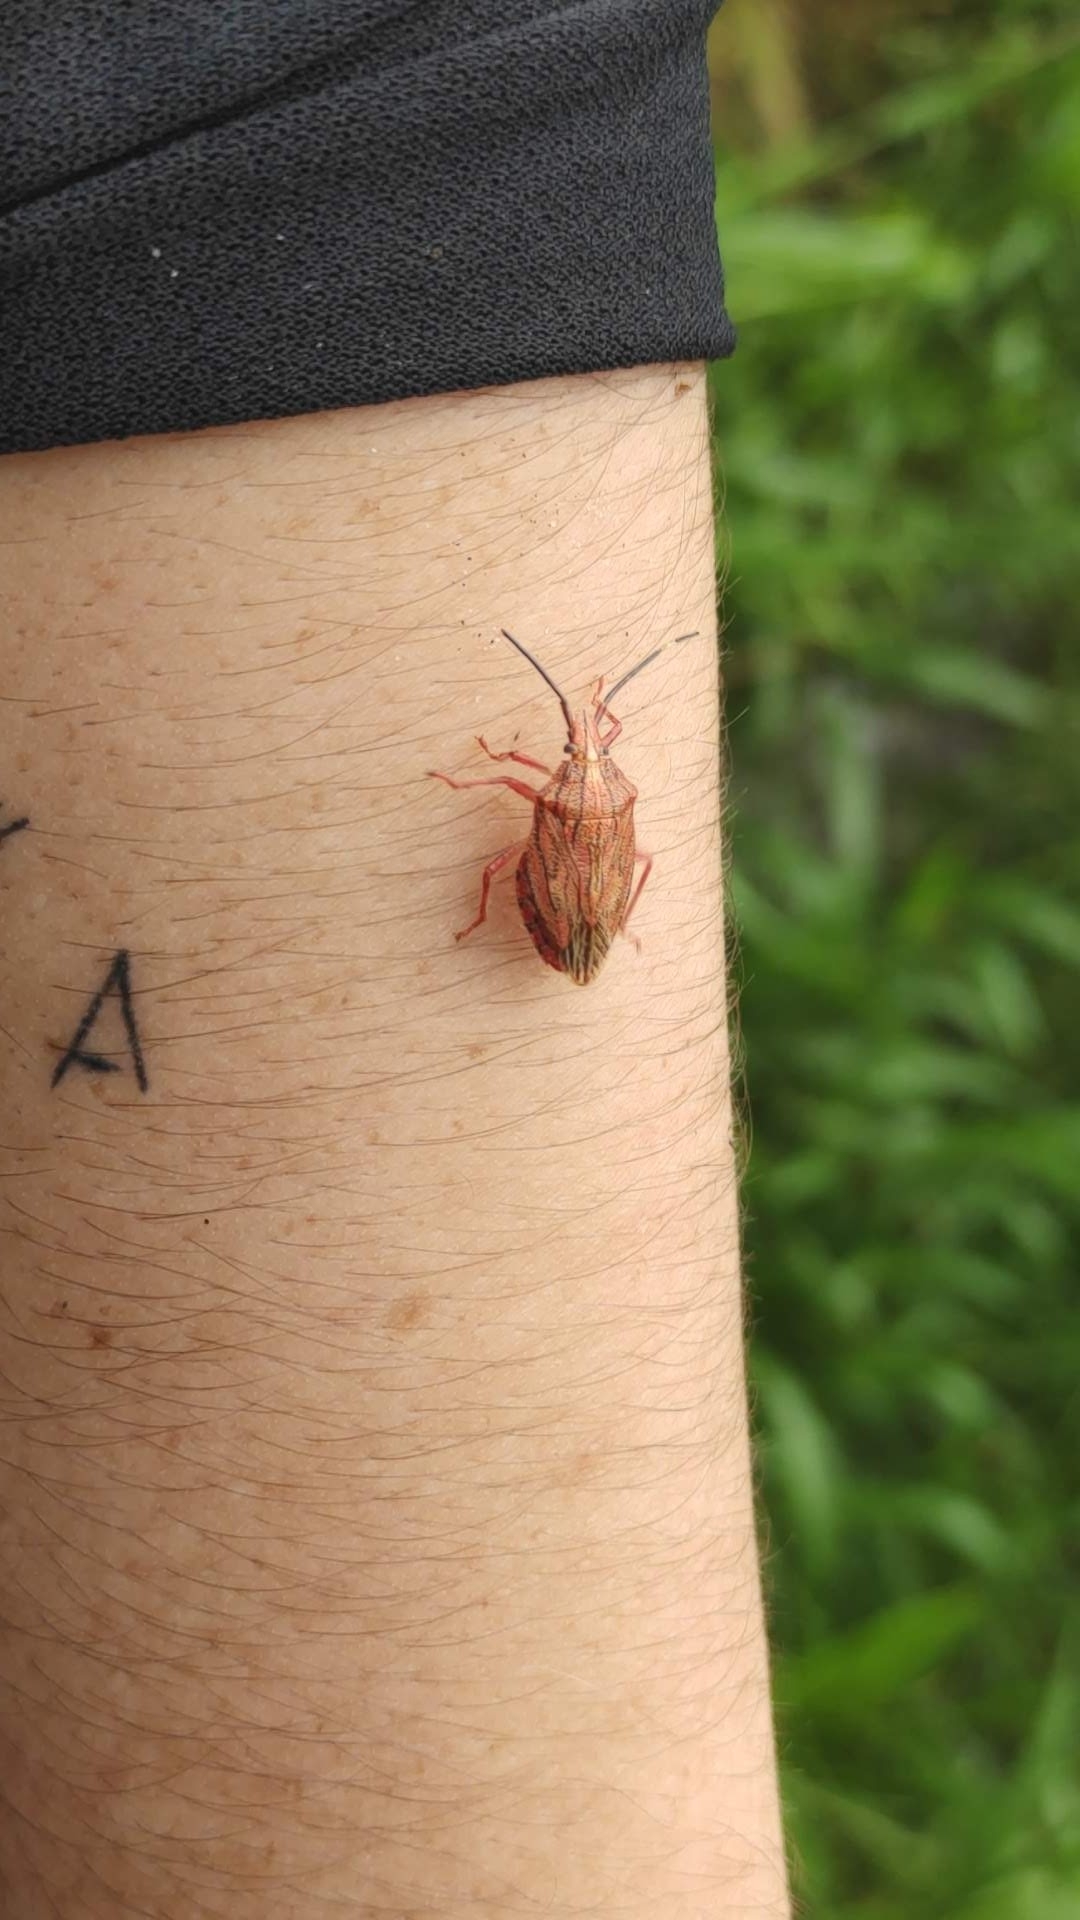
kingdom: Animalia
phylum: Arthropoda
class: Insecta
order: Hemiptera
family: Pentatomidae
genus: Dinocoris
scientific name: Dinocoris lineatus
